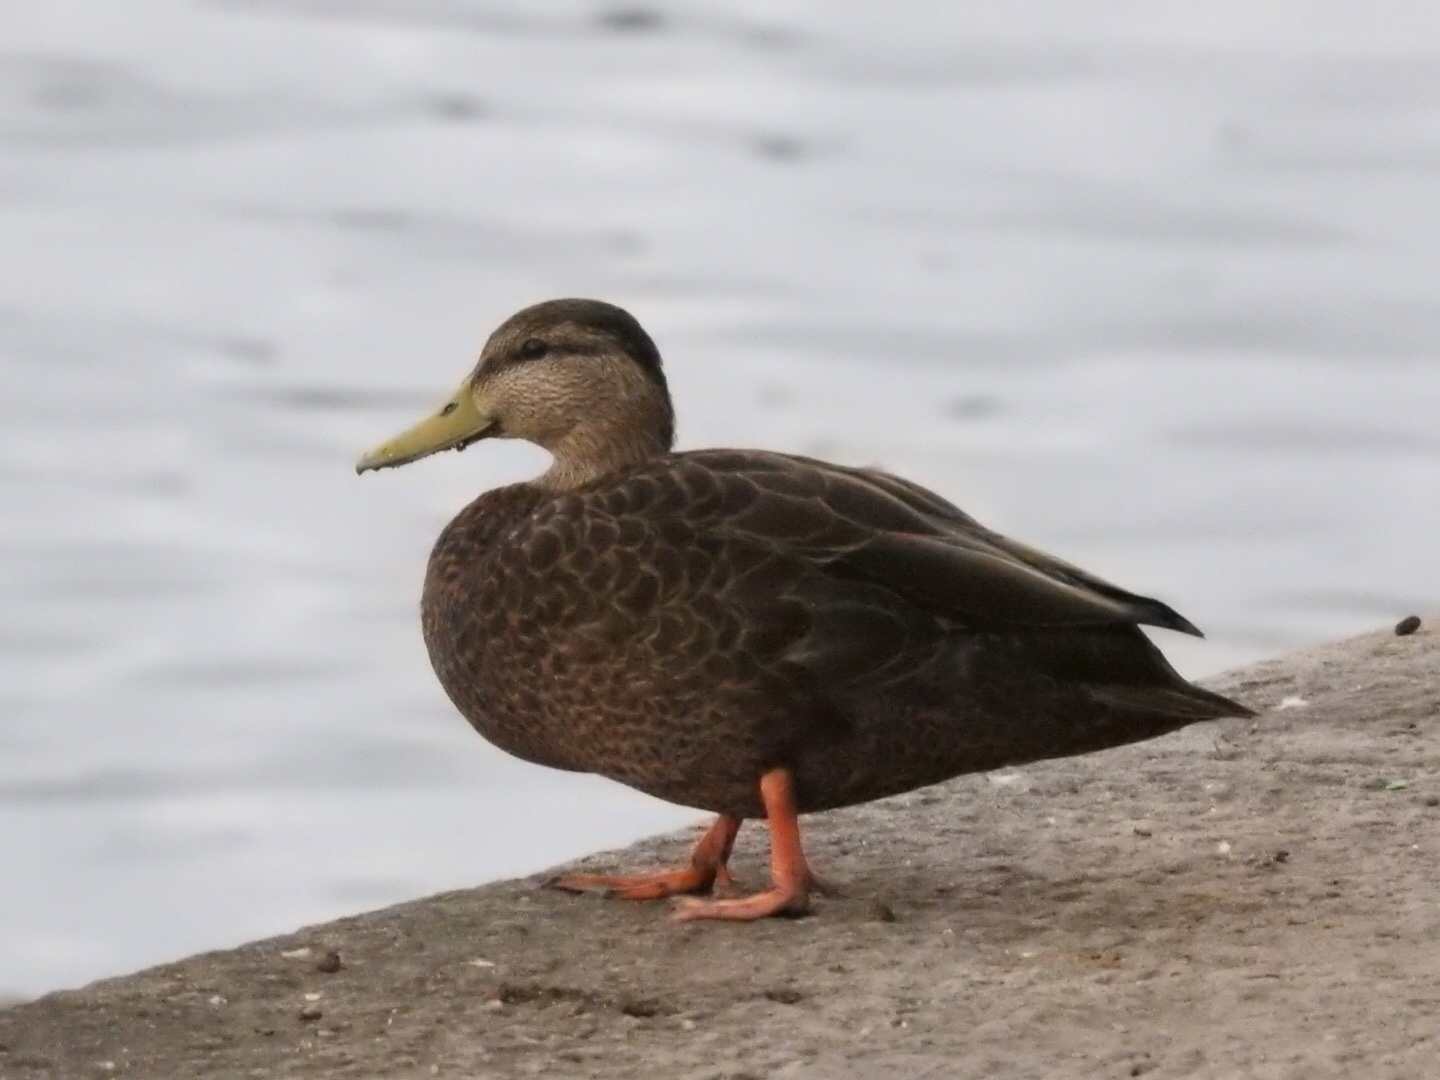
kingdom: Animalia
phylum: Chordata
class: Aves
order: Anseriformes
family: Anatidae
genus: Anas
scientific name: Anas rubripes
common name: American black duck
